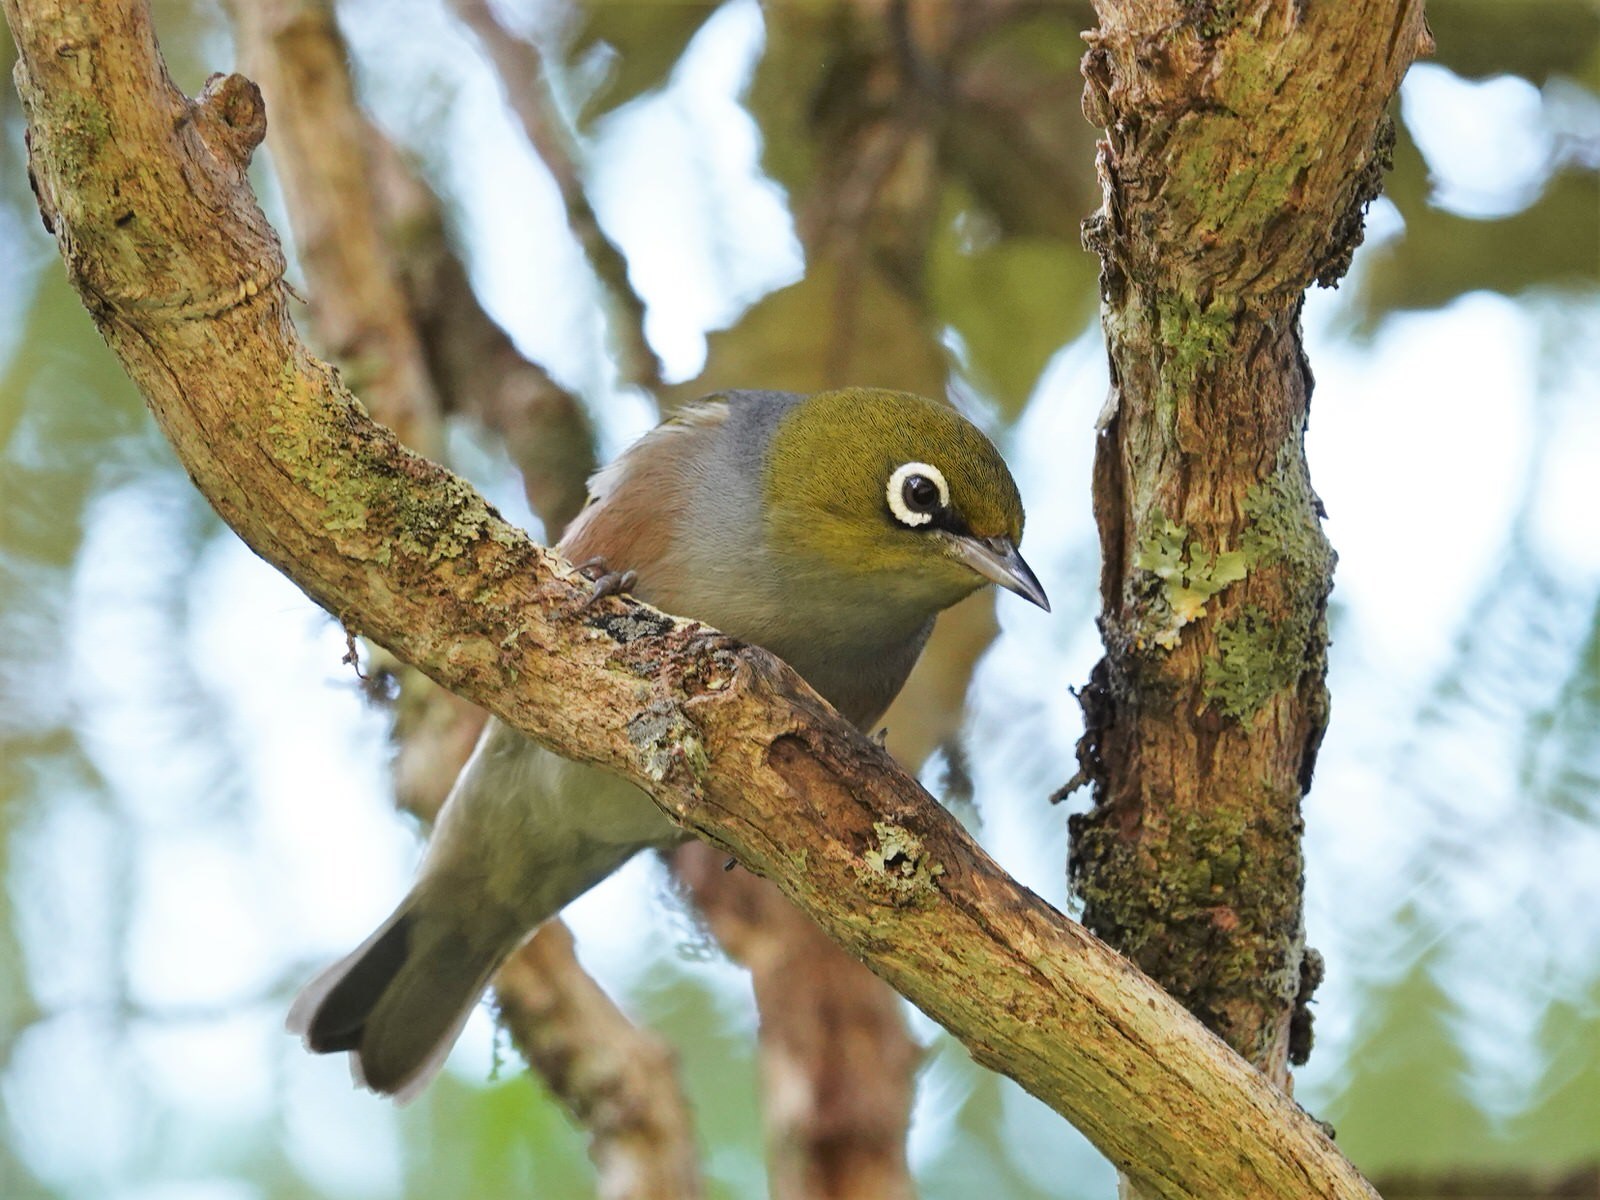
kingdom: Animalia
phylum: Chordata
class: Aves
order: Passeriformes
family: Zosteropidae
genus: Zosterops
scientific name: Zosterops lateralis
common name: Silvereye
